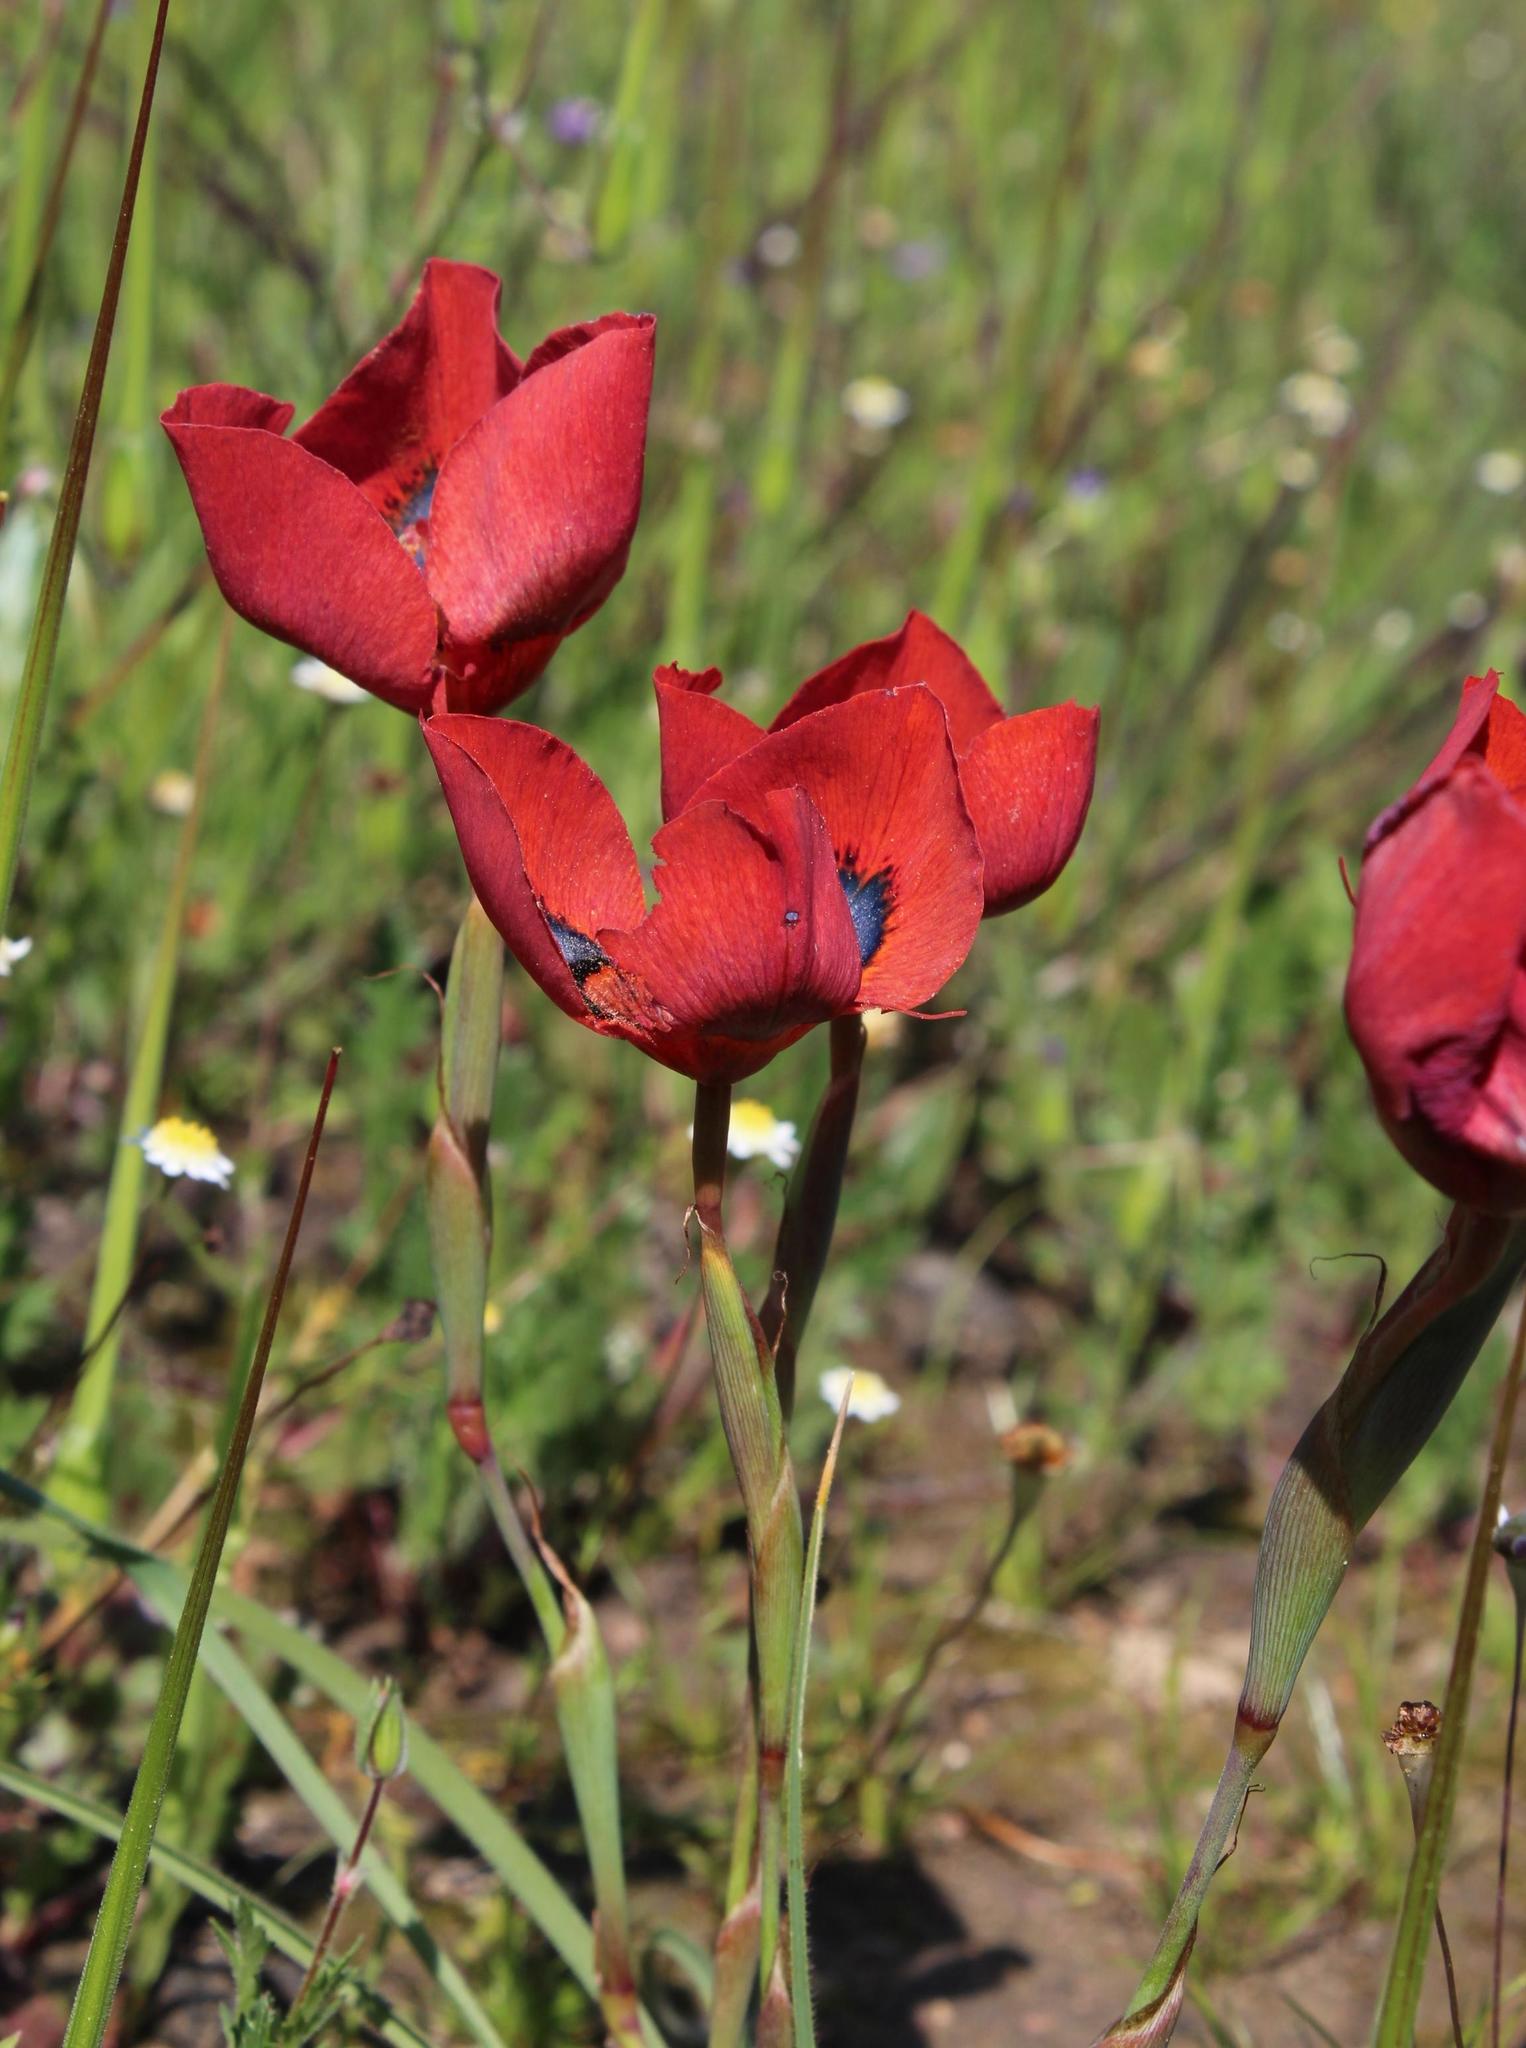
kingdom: Plantae
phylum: Tracheophyta
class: Liliopsida
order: Asparagales
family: Iridaceae
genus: Moraea
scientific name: Moraea tulbaghensis
